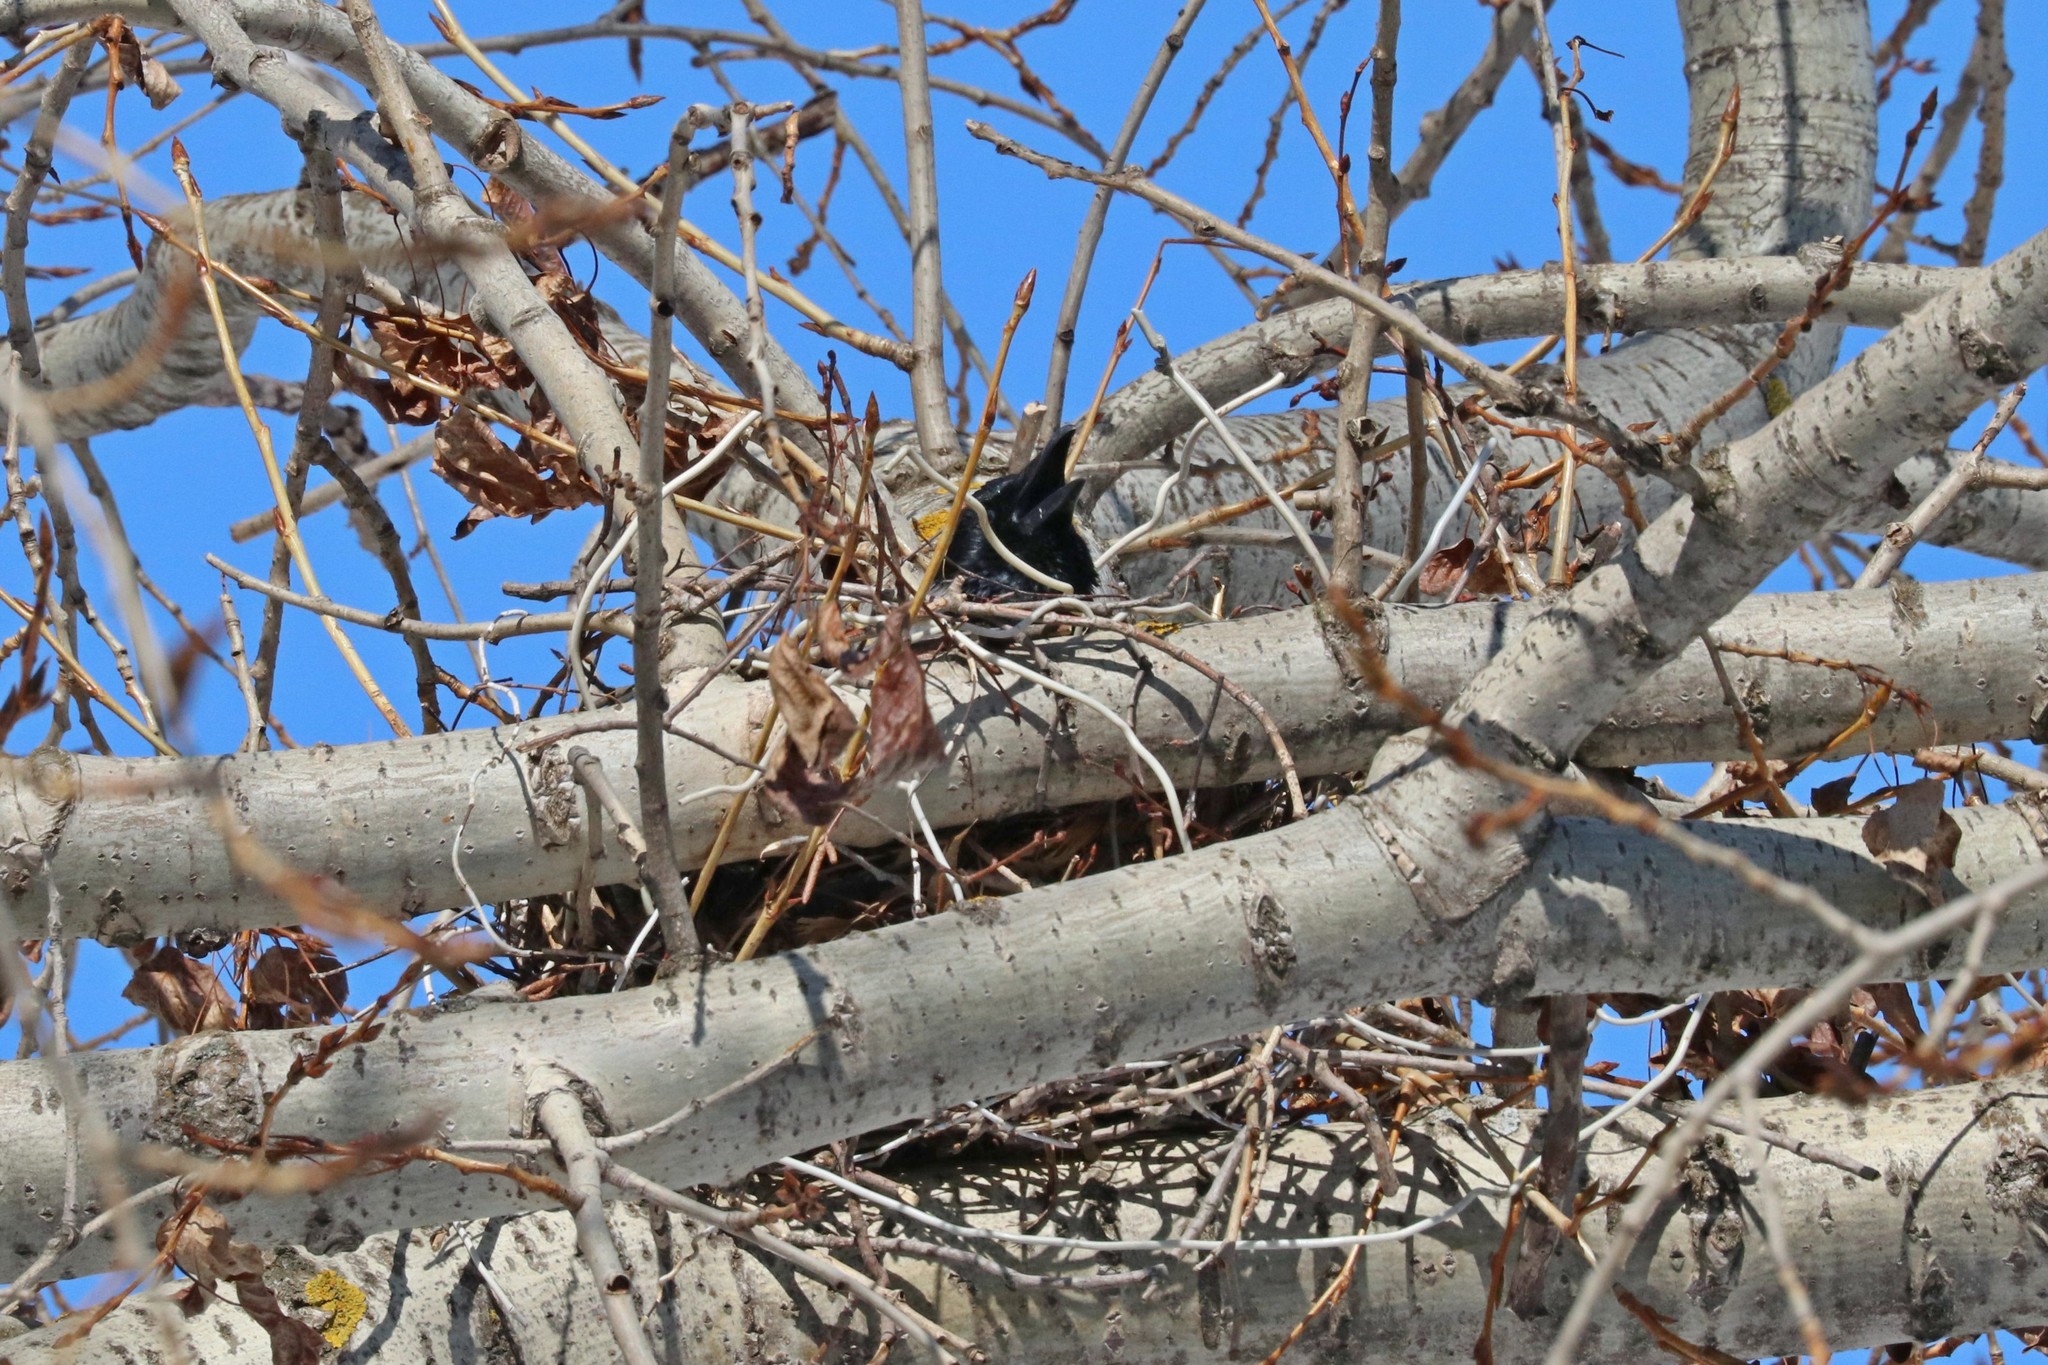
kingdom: Animalia
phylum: Chordata
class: Aves
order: Passeriformes
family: Corvidae
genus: Corvus
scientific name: Corvus cornix
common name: Hooded crow
